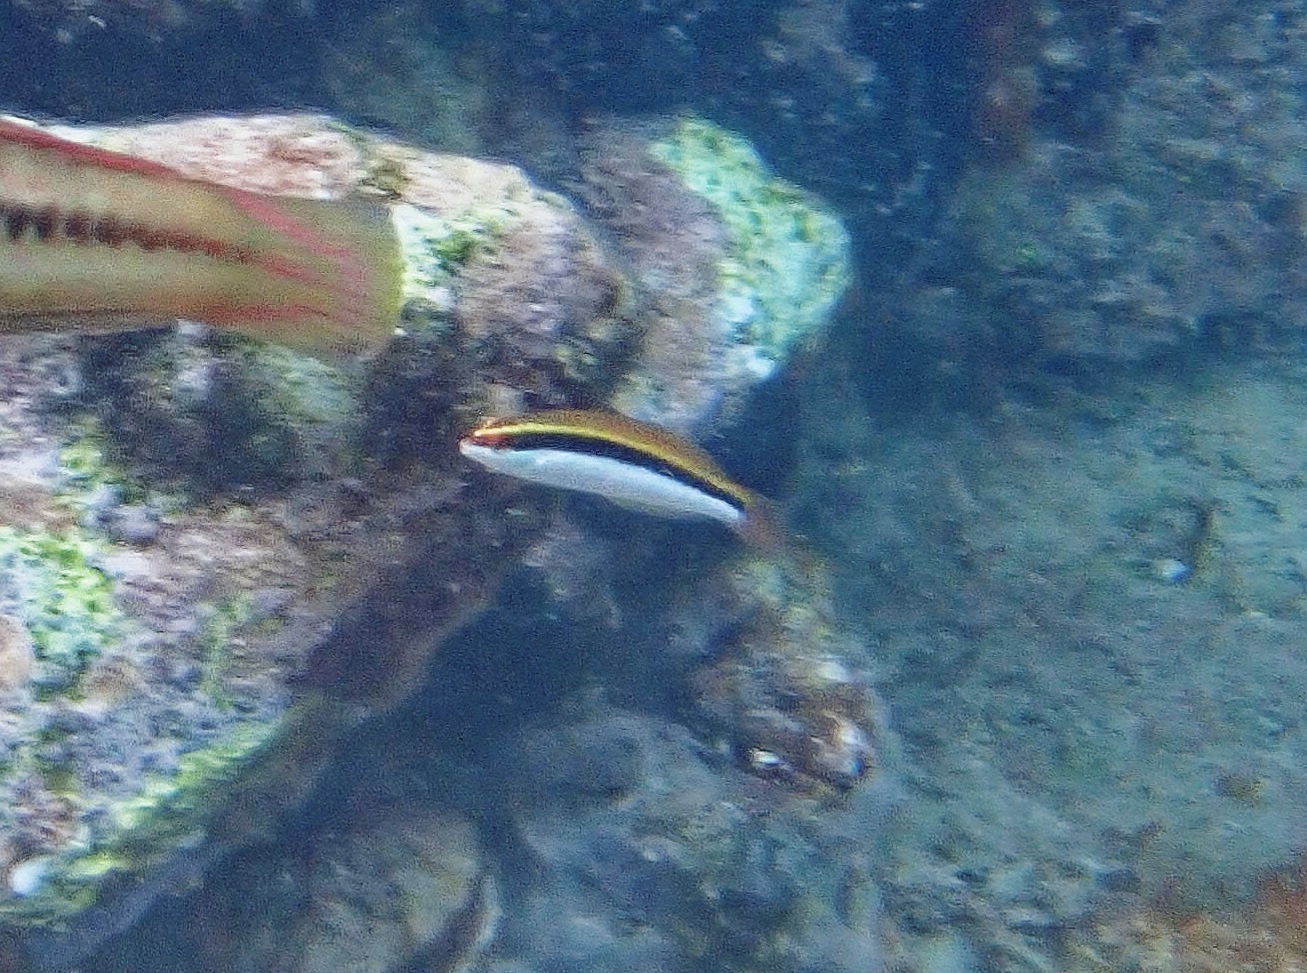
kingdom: Animalia
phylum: Chordata
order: Perciformes
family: Labridae
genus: Halichoeres
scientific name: Halichoeres maculipinna
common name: Clown wrasse
